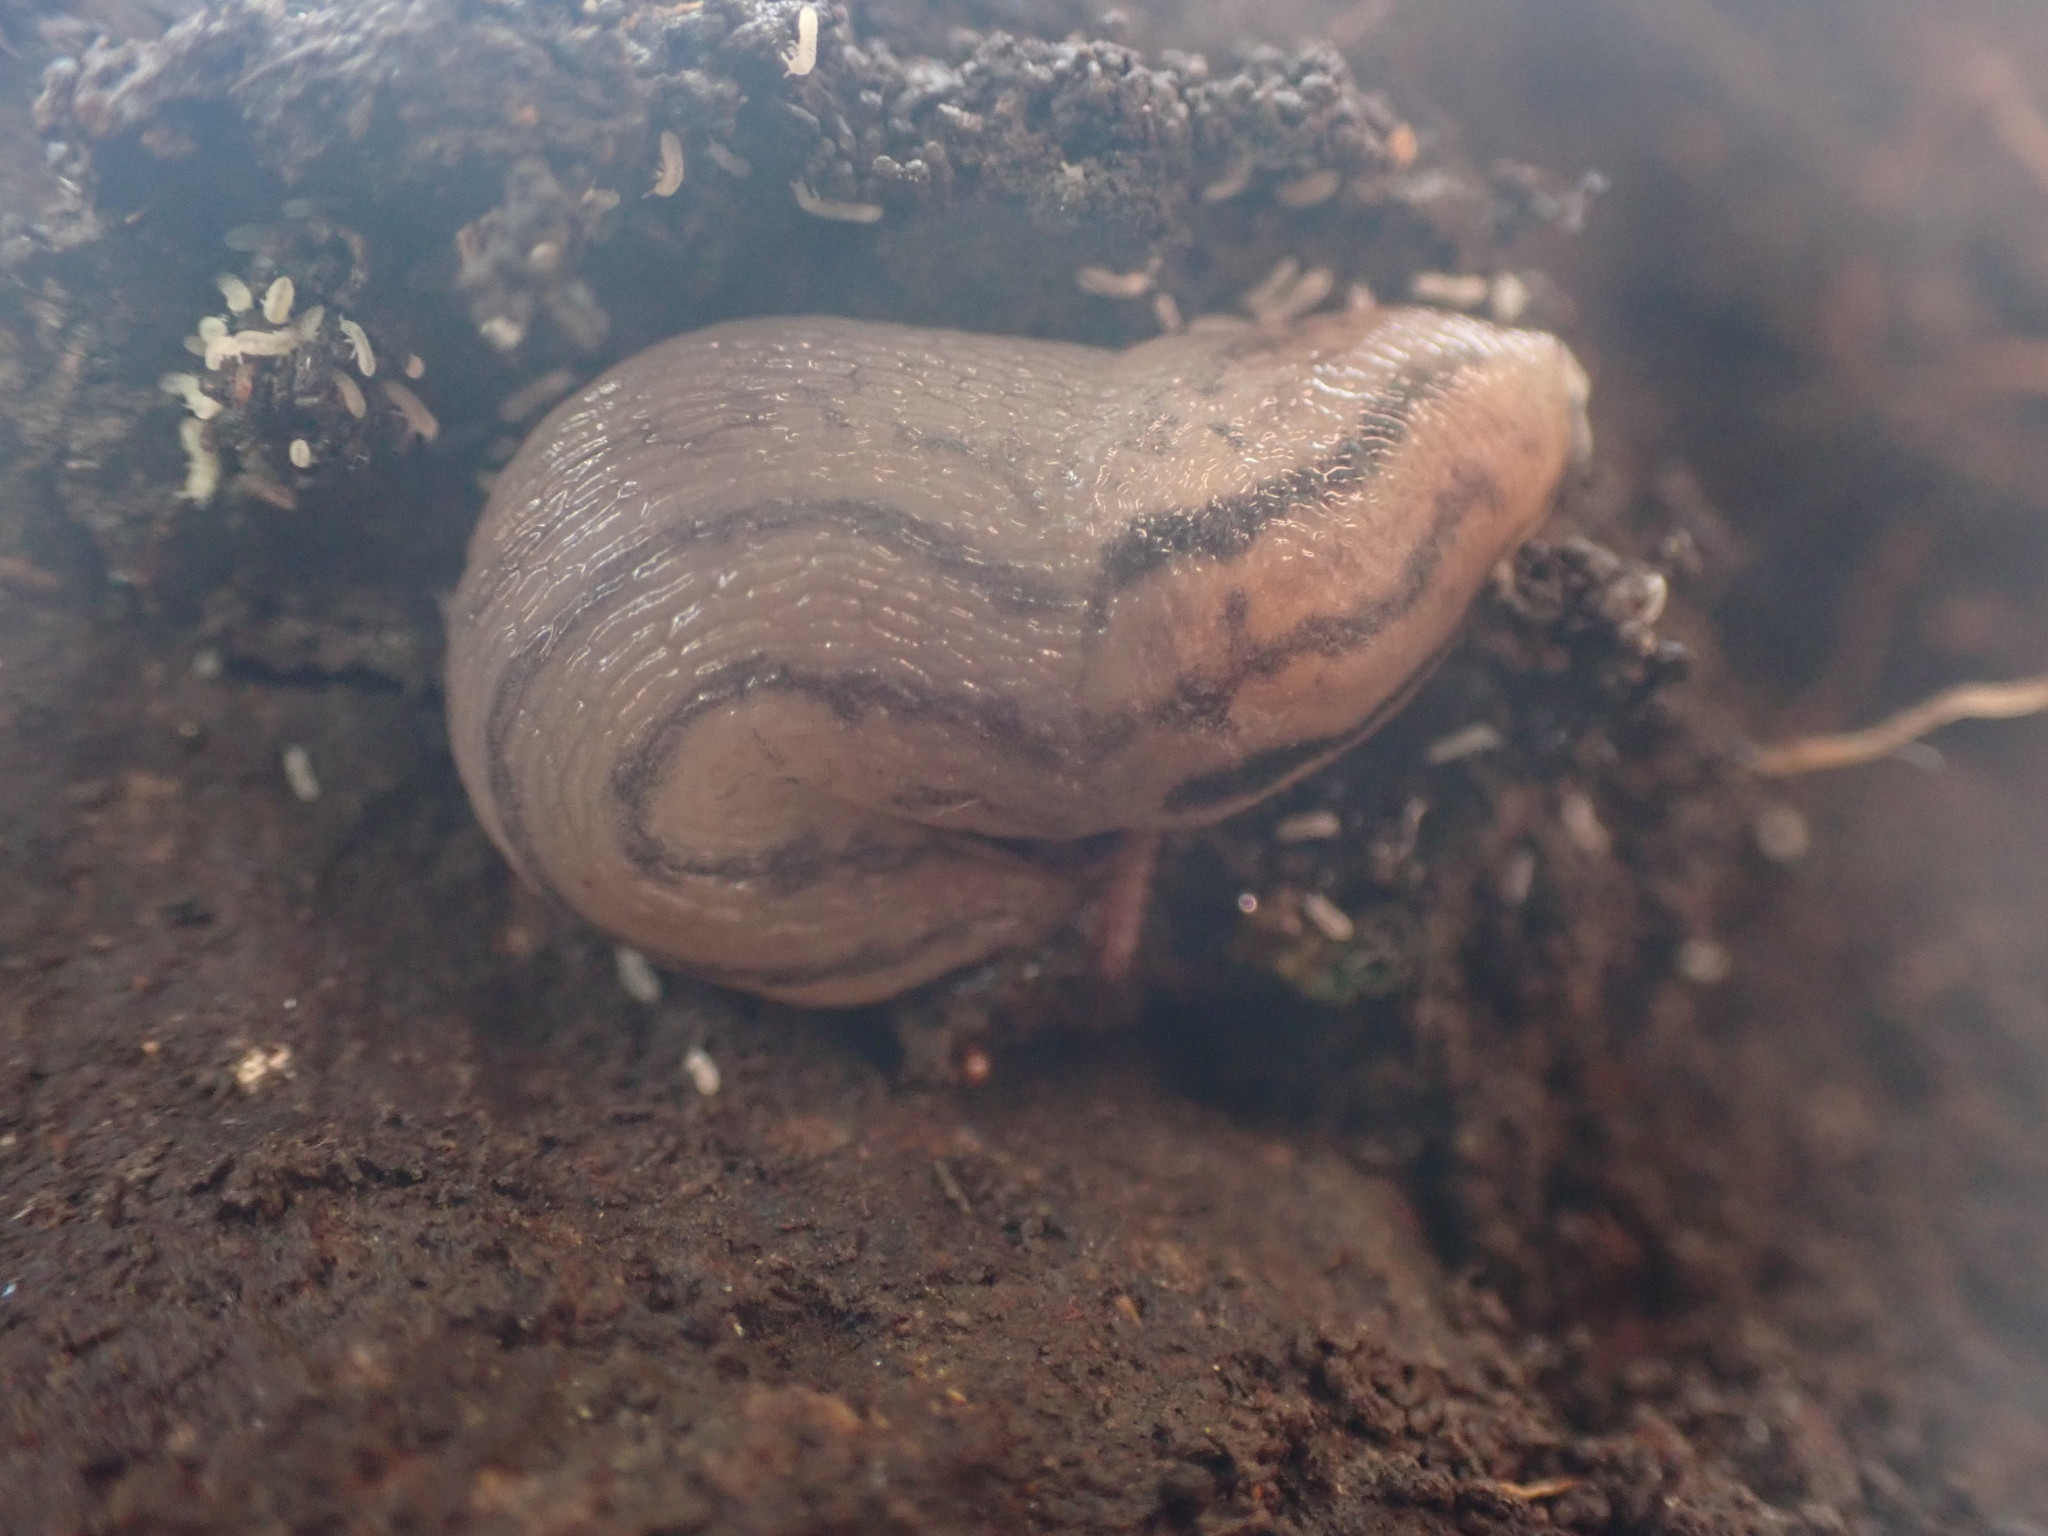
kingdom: Animalia
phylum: Mollusca
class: Gastropoda
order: Stylommatophora
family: Limacidae
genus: Ambigolimax
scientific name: Ambigolimax
